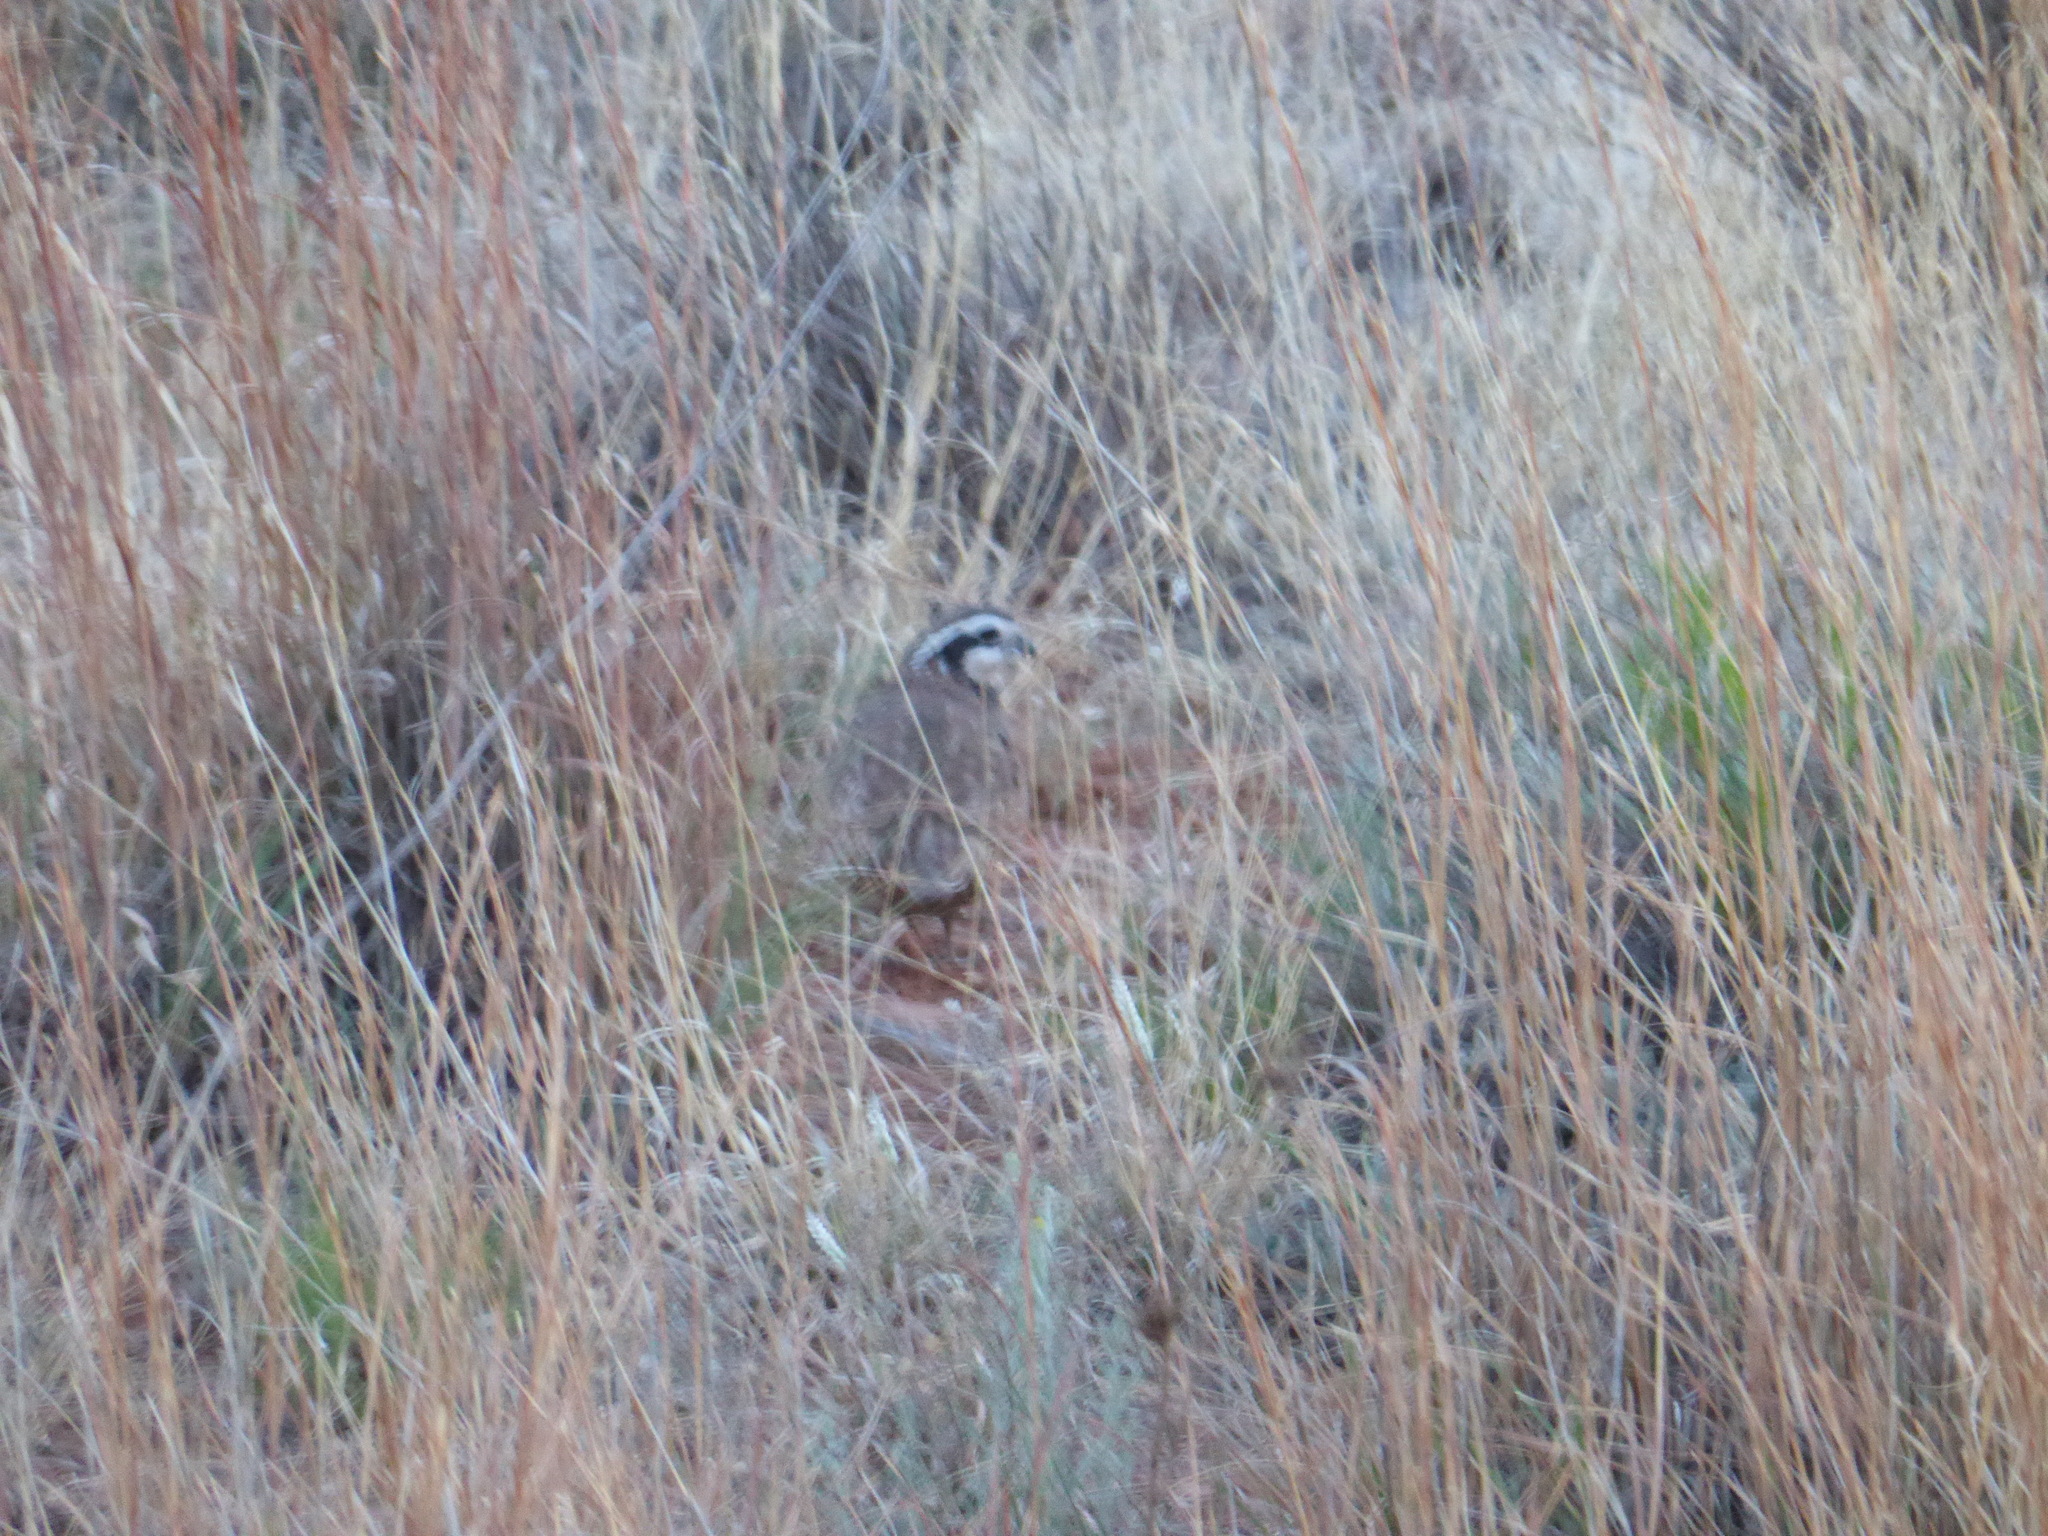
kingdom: Animalia
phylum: Chordata
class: Aves
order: Galliformes
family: Odontophoridae
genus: Colinus
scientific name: Colinus virginianus
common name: Northern bobwhite
